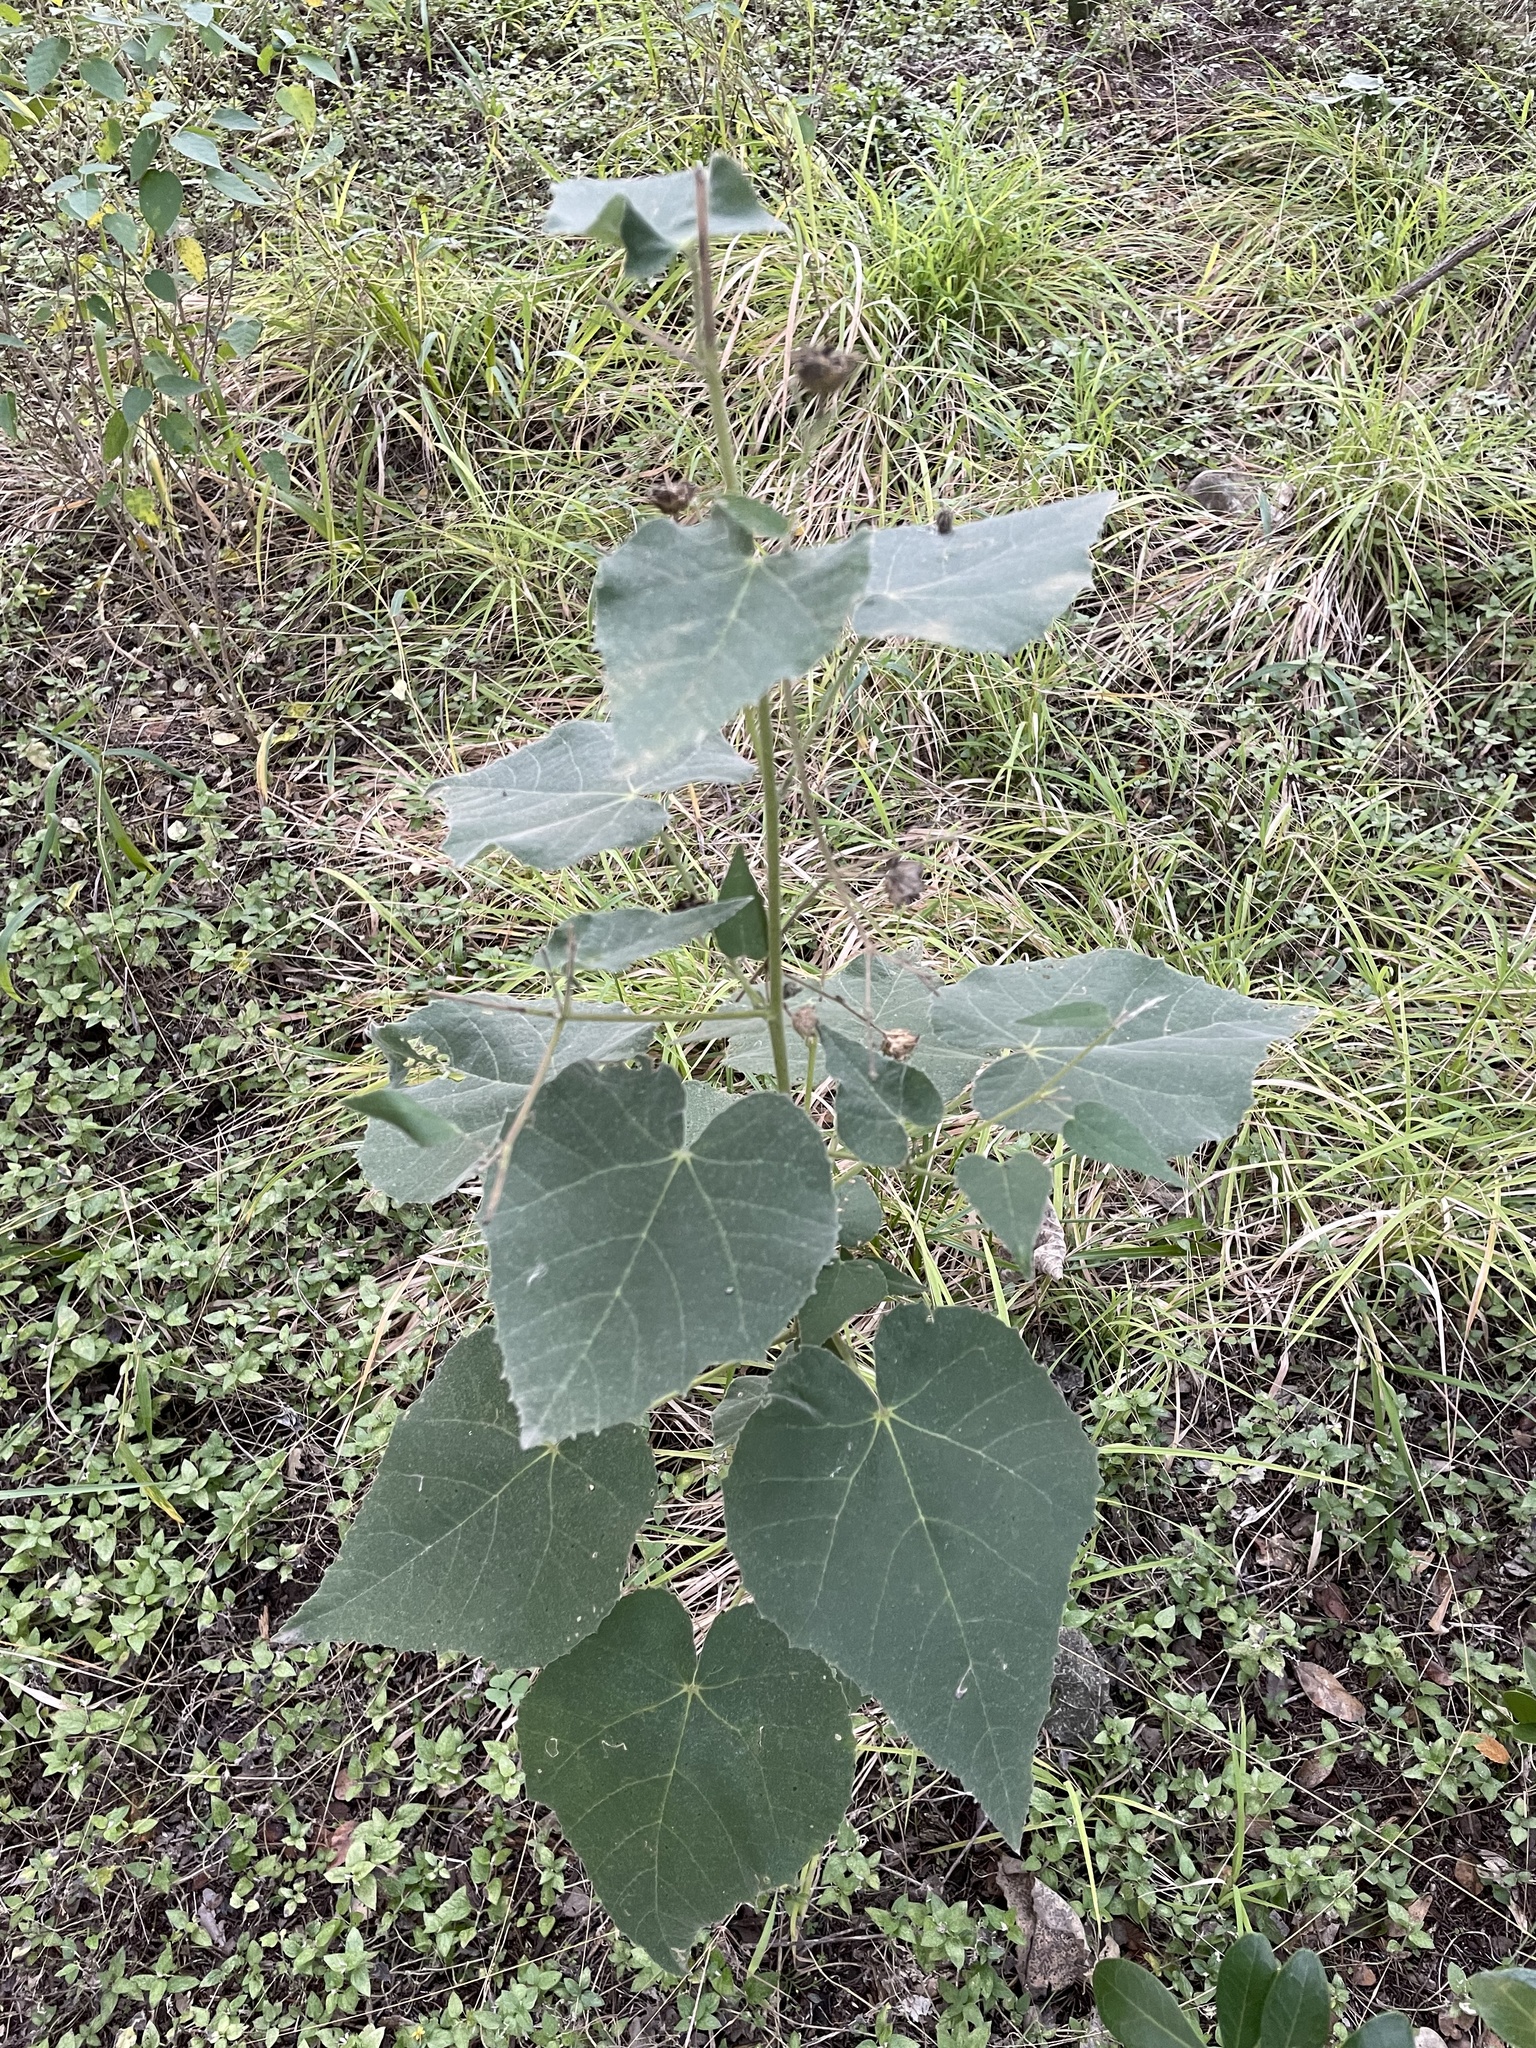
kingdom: Plantae
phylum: Tracheophyta
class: Magnoliopsida
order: Malvales
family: Malvaceae
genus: Allowissadula
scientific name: Allowissadula holosericea
